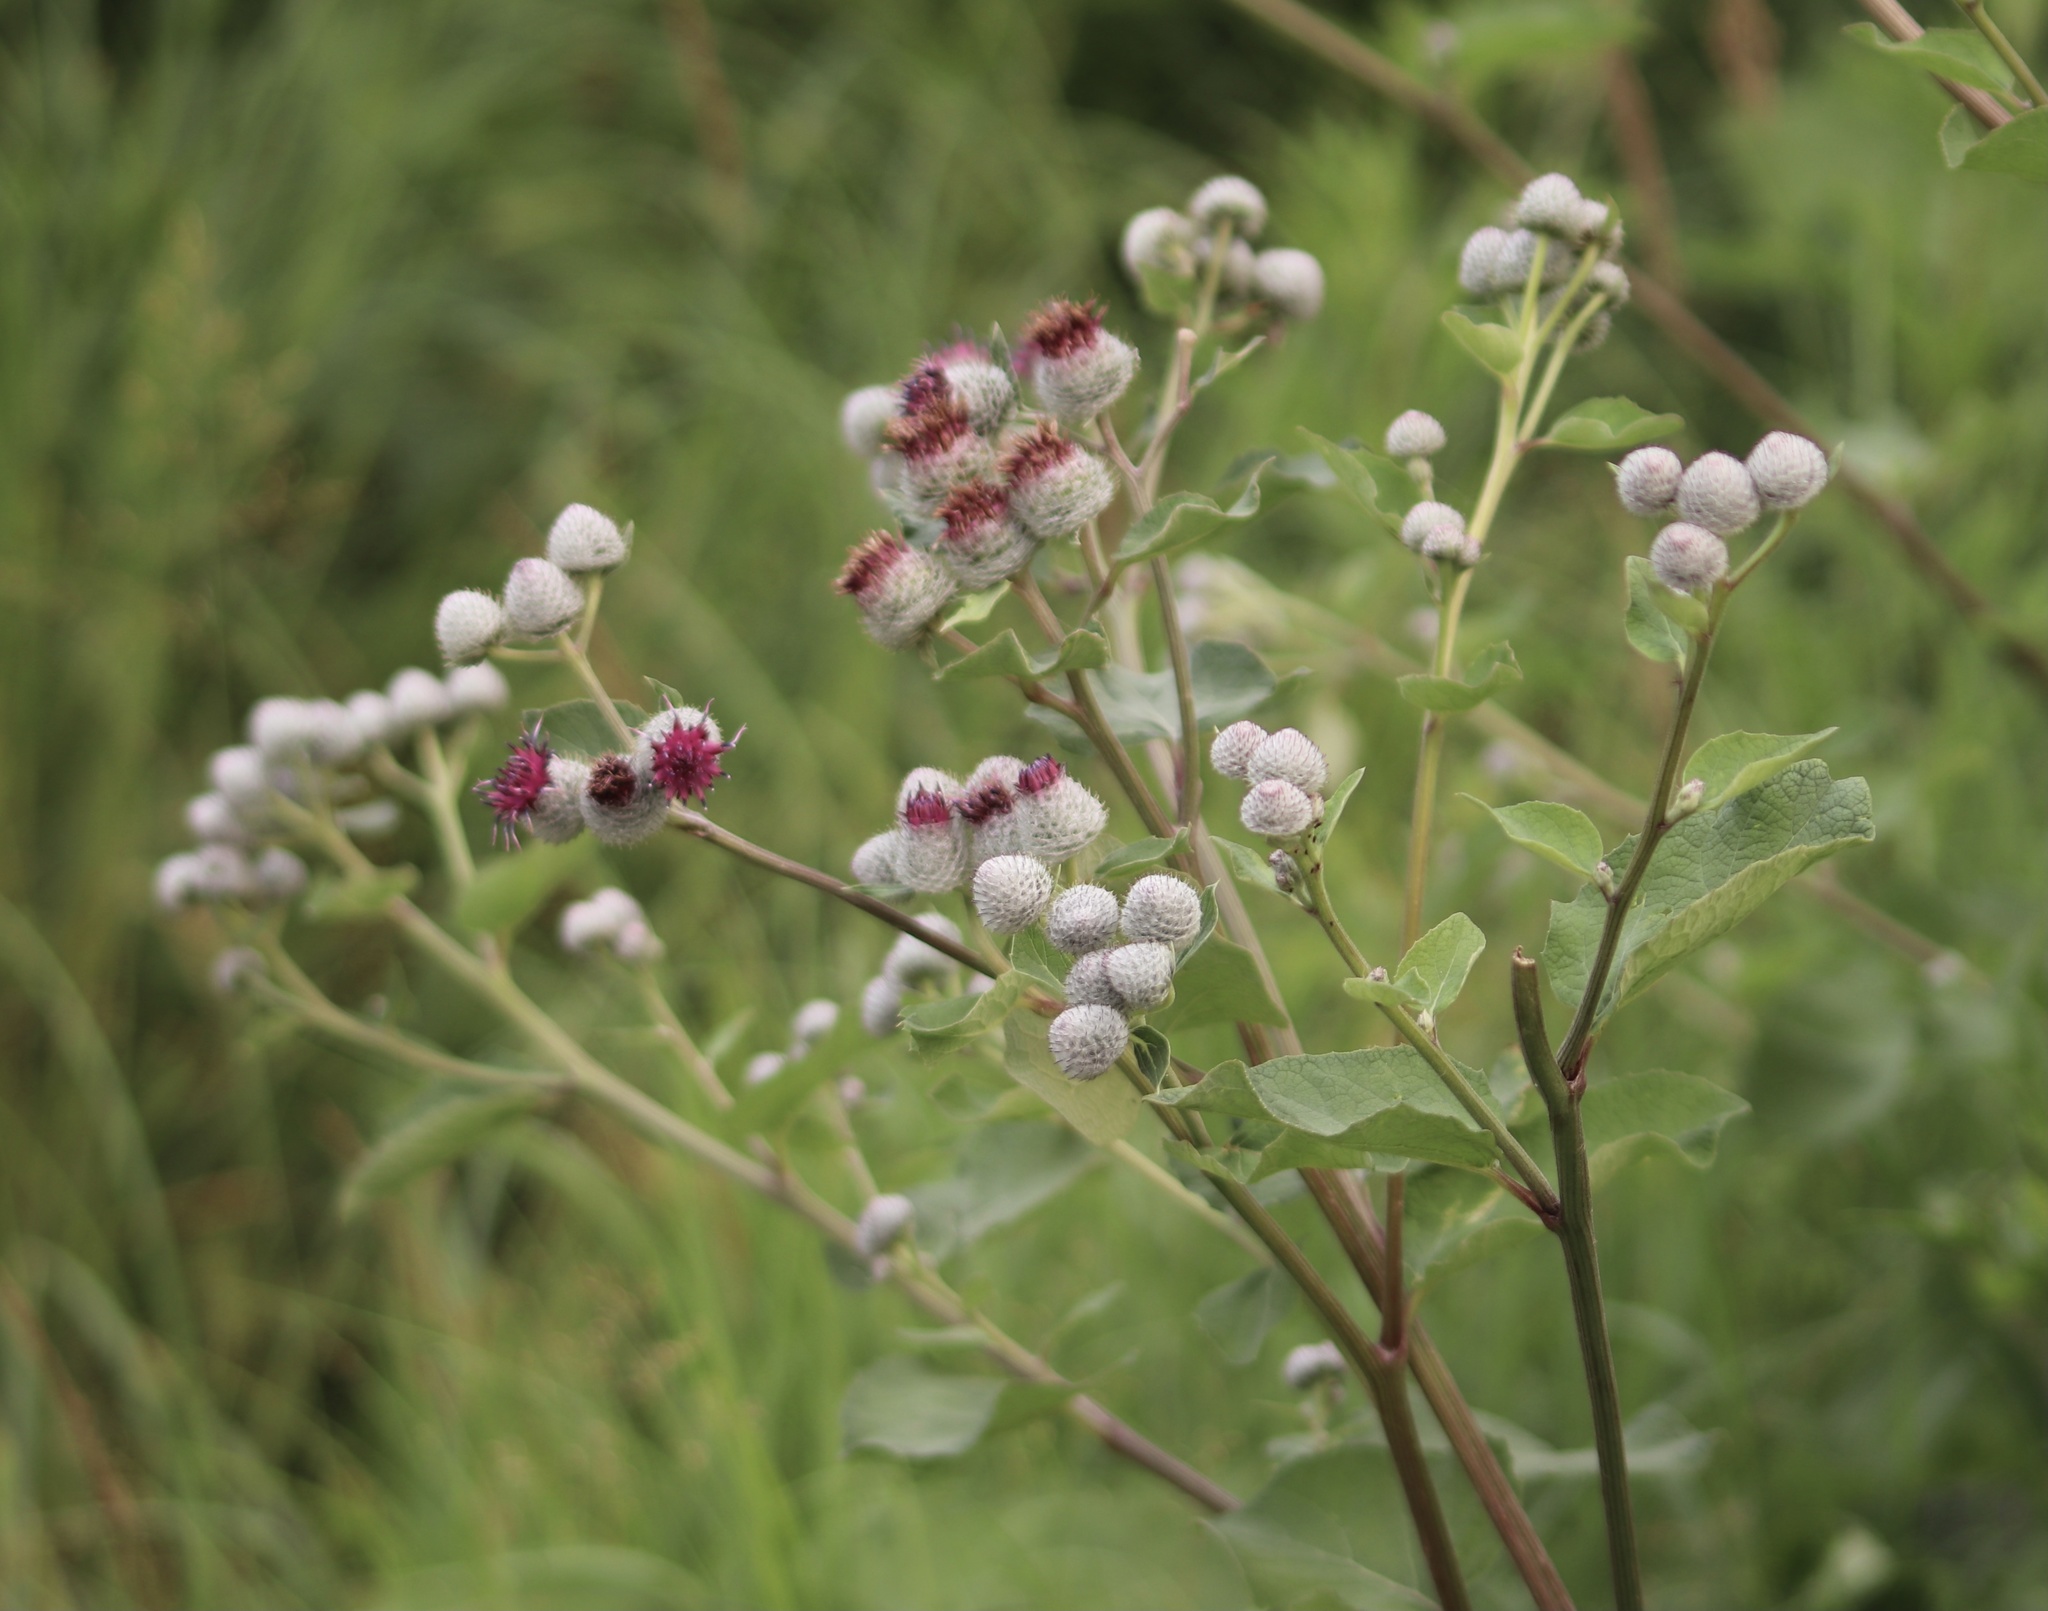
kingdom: Plantae
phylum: Tracheophyta
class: Magnoliopsida
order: Asterales
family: Asteraceae
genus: Arctium
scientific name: Arctium tomentosum
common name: Woolly burdock
